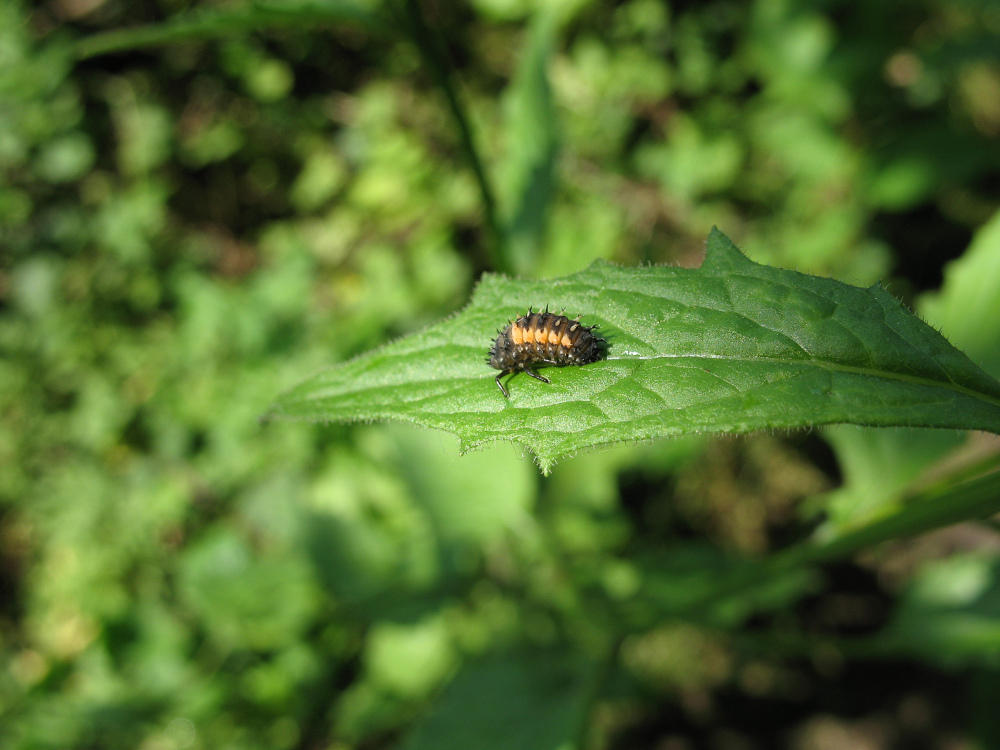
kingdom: Animalia
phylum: Arthropoda
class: Insecta
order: Coleoptera
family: Coccinellidae
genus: Harmonia
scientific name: Harmonia axyridis
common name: Harlequin ladybird
